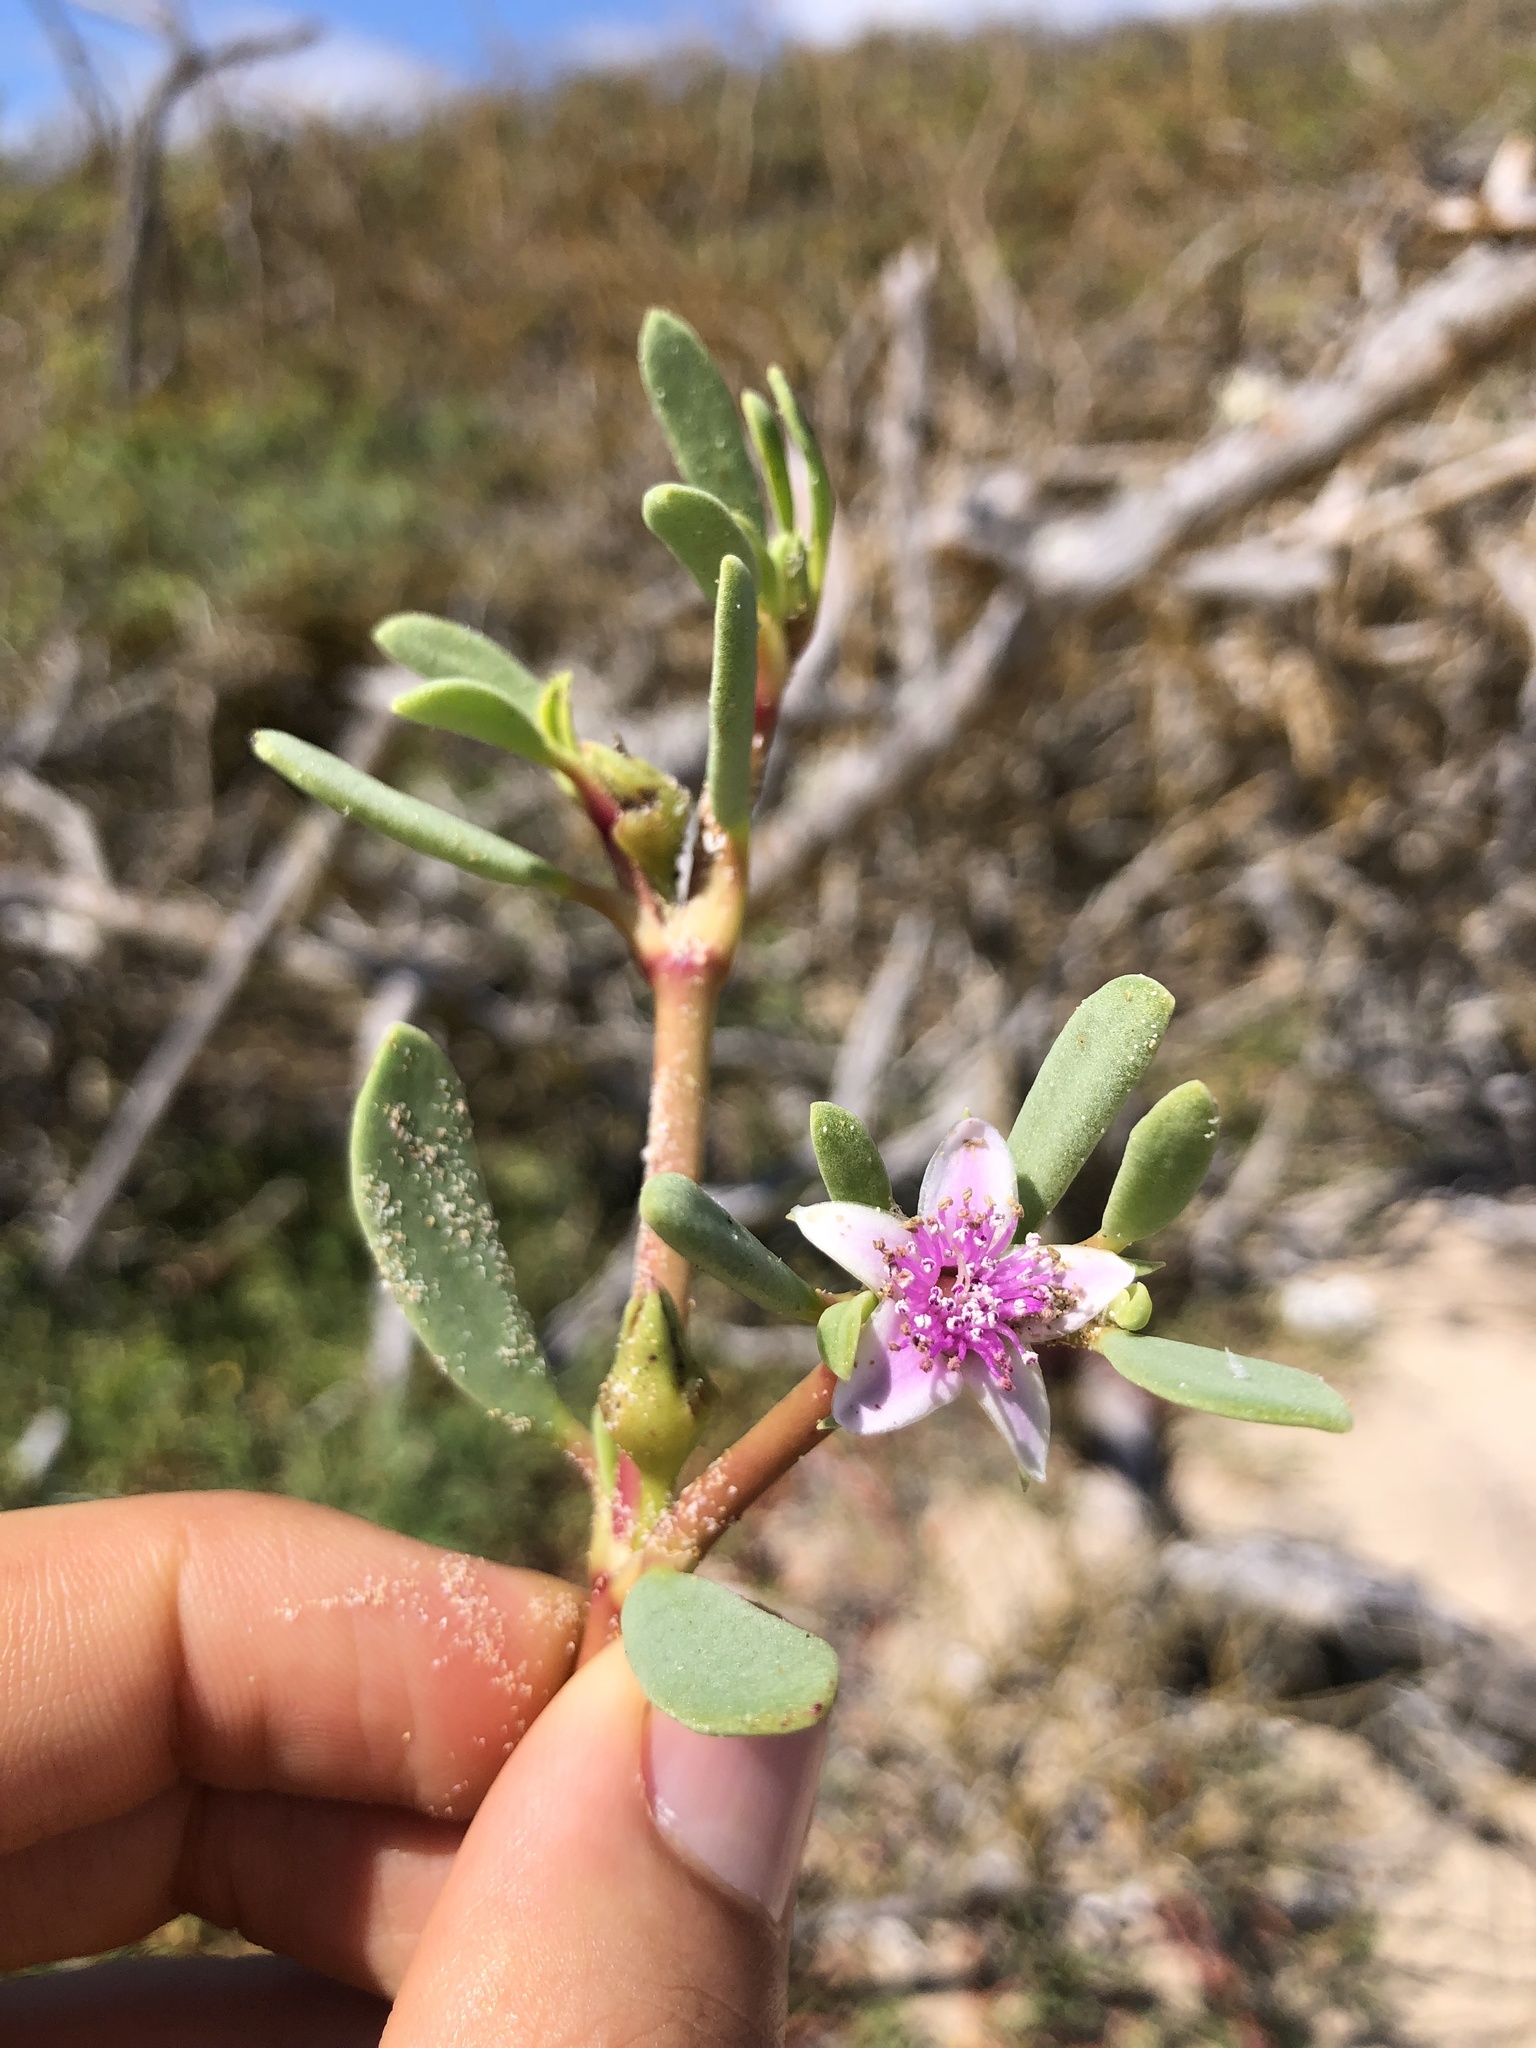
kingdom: Plantae
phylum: Tracheophyta
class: Magnoliopsida
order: Caryophyllales
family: Aizoaceae
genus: Sesuvium
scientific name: Sesuvium portulacastrum
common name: Sea-purslane
